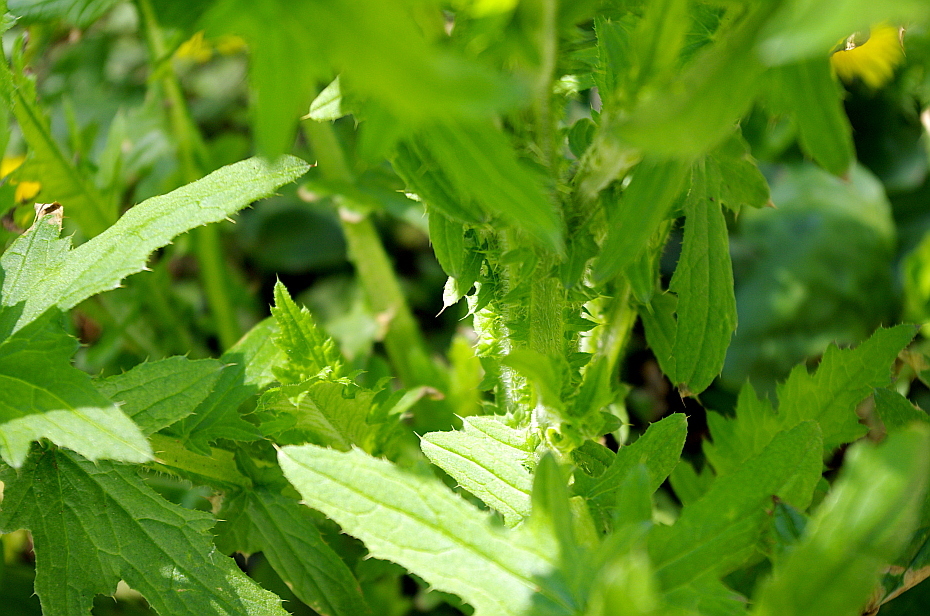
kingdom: Plantae
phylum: Tracheophyta
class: Magnoliopsida
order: Asterales
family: Asteraceae
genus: Carduus
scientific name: Carduus crispus
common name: Welted thistle
